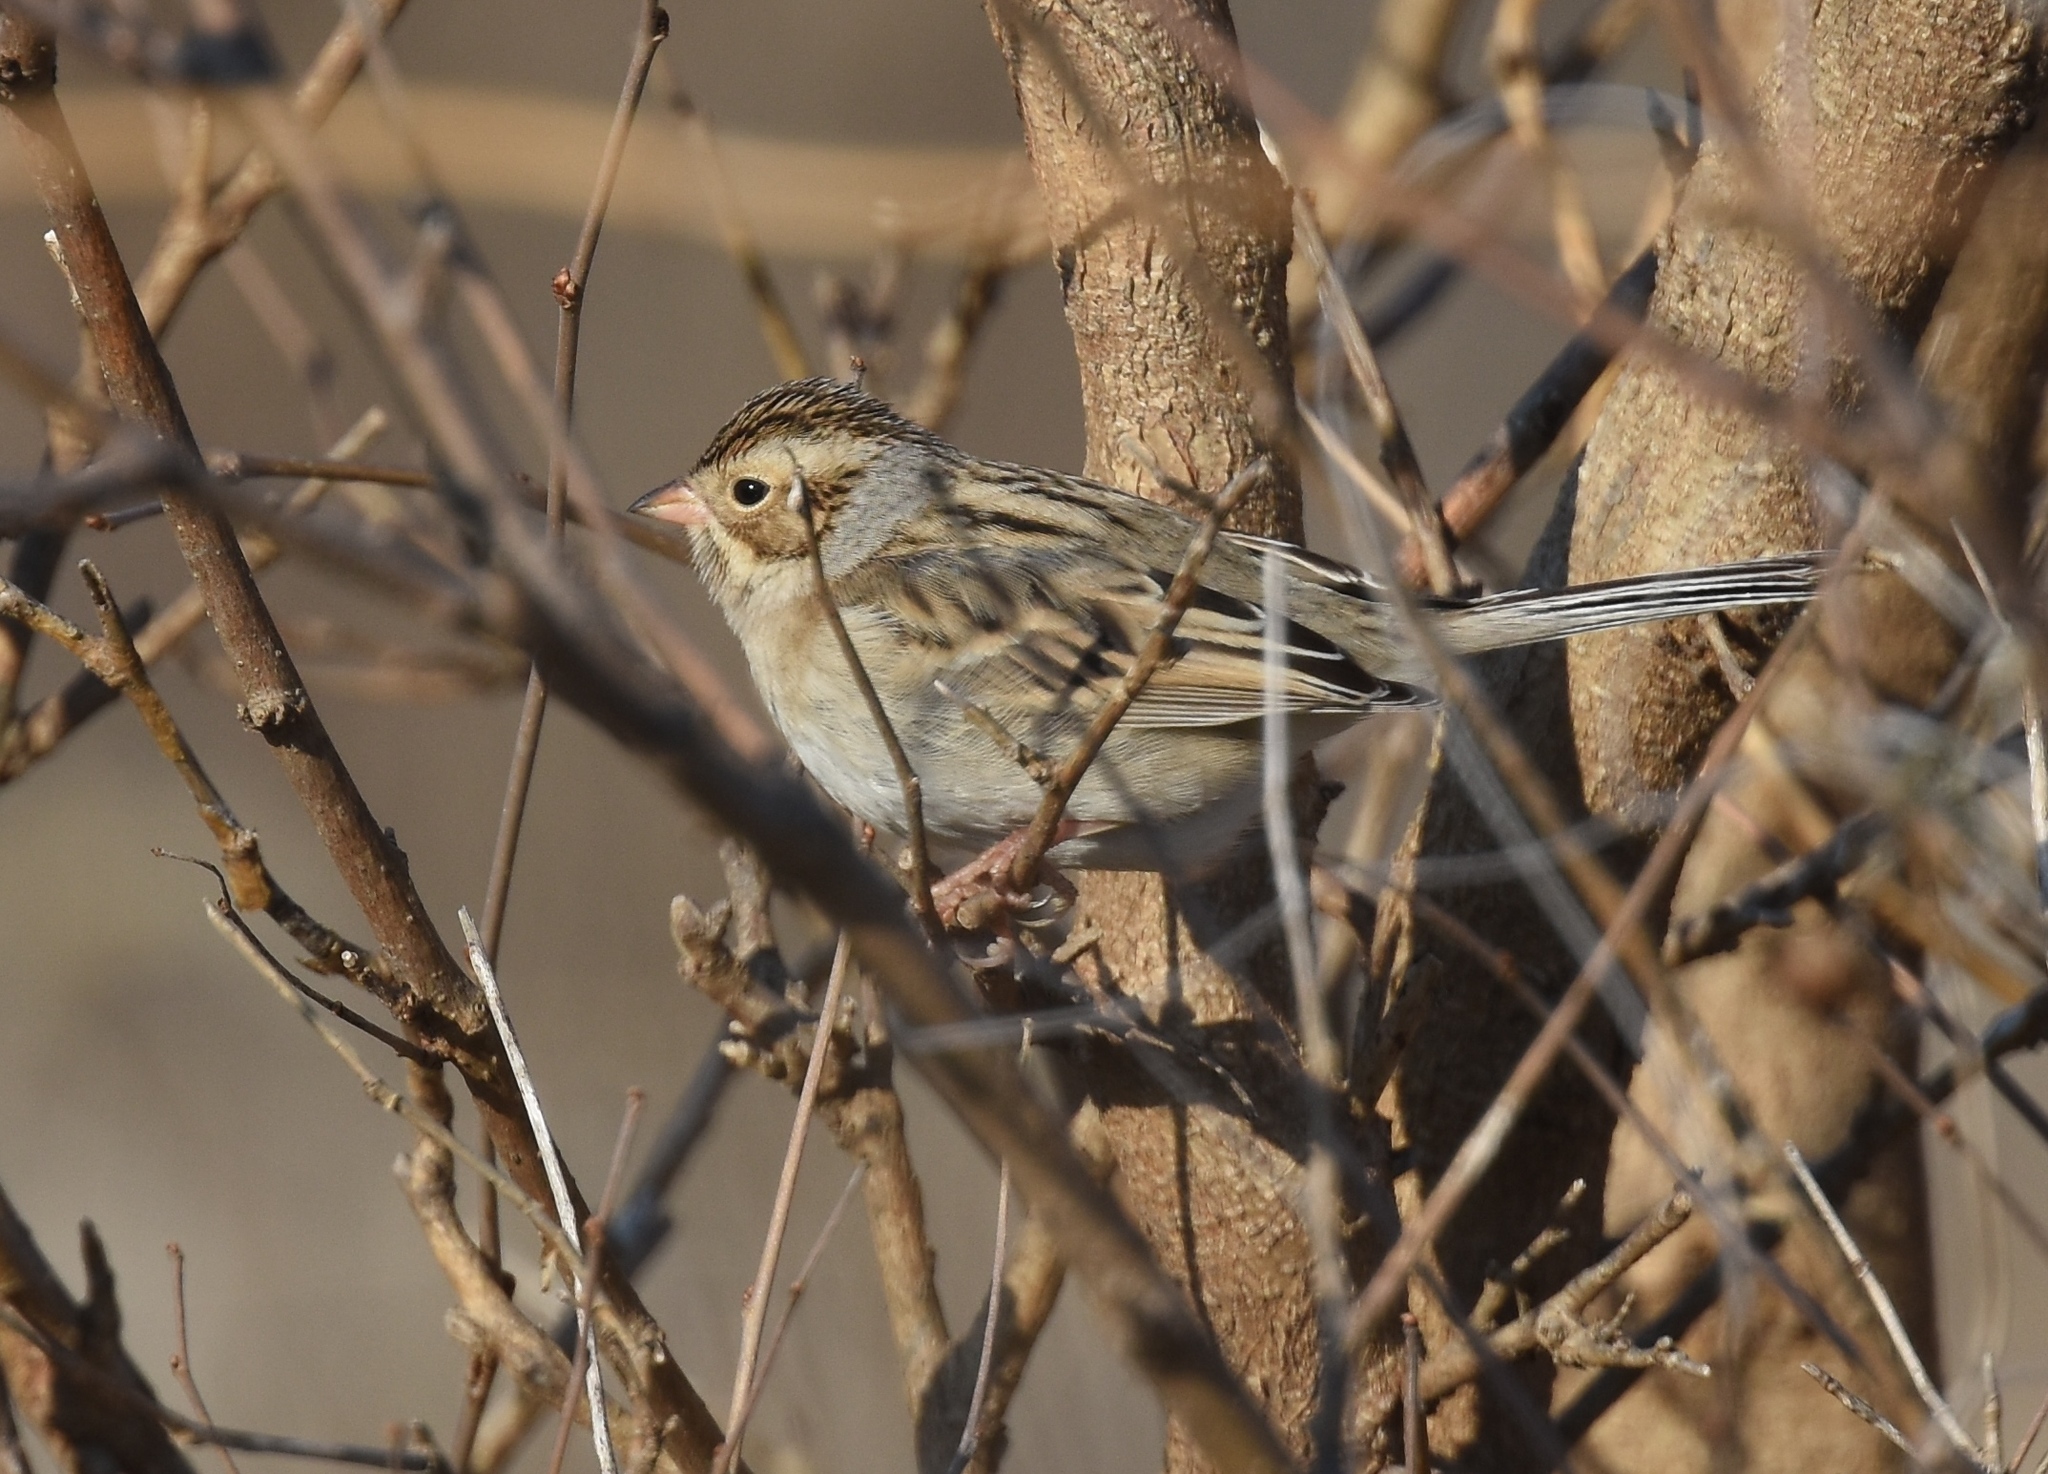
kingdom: Animalia
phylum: Chordata
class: Aves
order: Passeriformes
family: Passerellidae
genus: Spizella
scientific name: Spizella pallida
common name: Clay-colored sparrow
